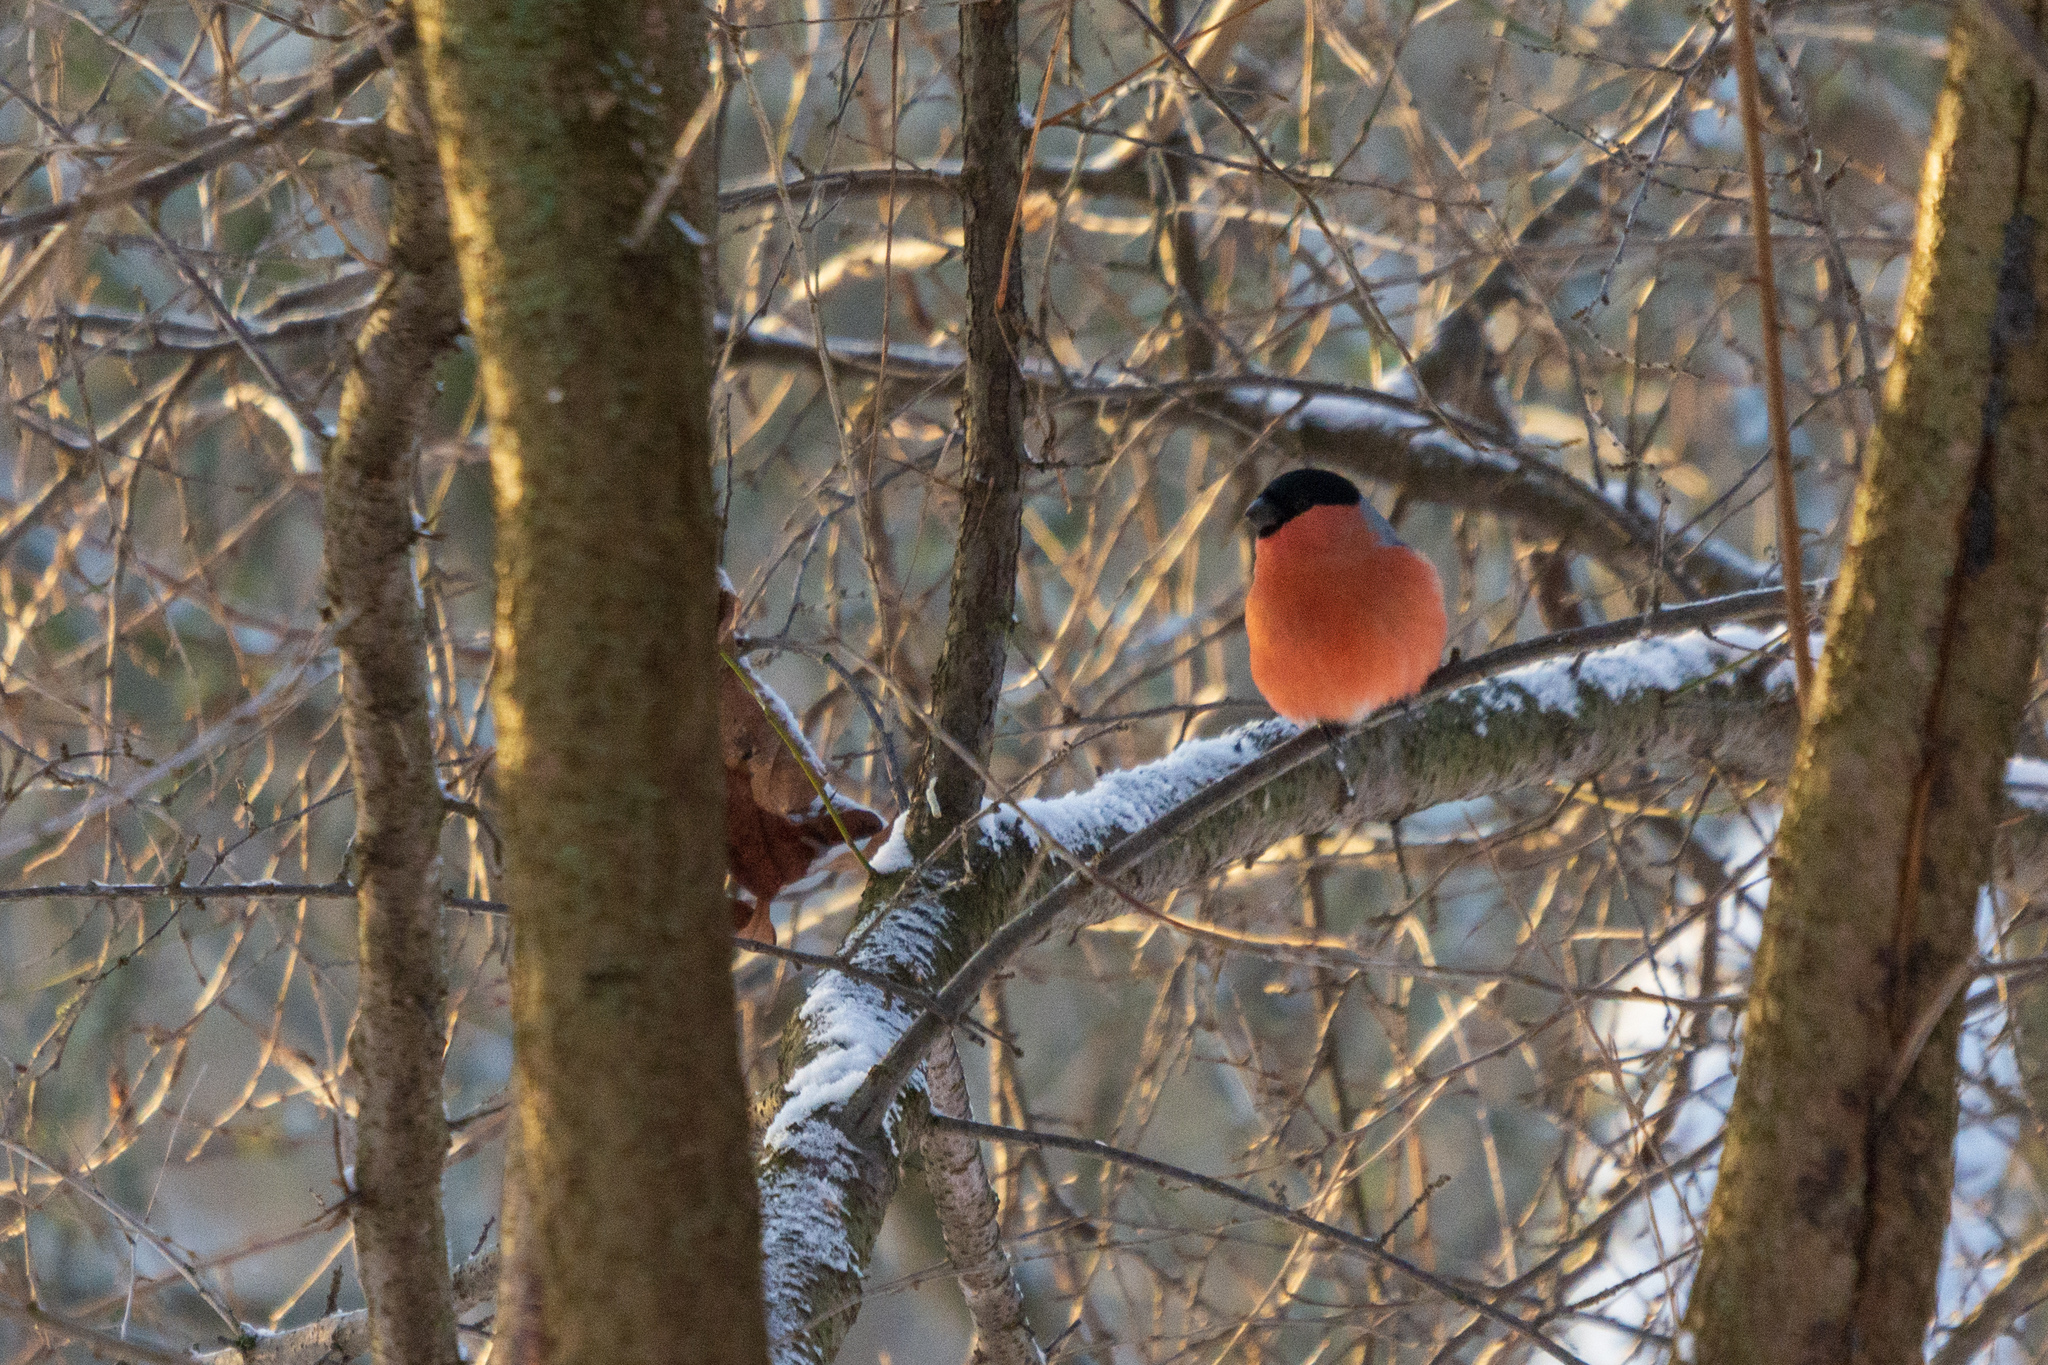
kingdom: Animalia
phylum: Chordata
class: Aves
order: Passeriformes
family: Fringillidae
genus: Pyrrhula
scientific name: Pyrrhula pyrrhula
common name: Eurasian bullfinch
